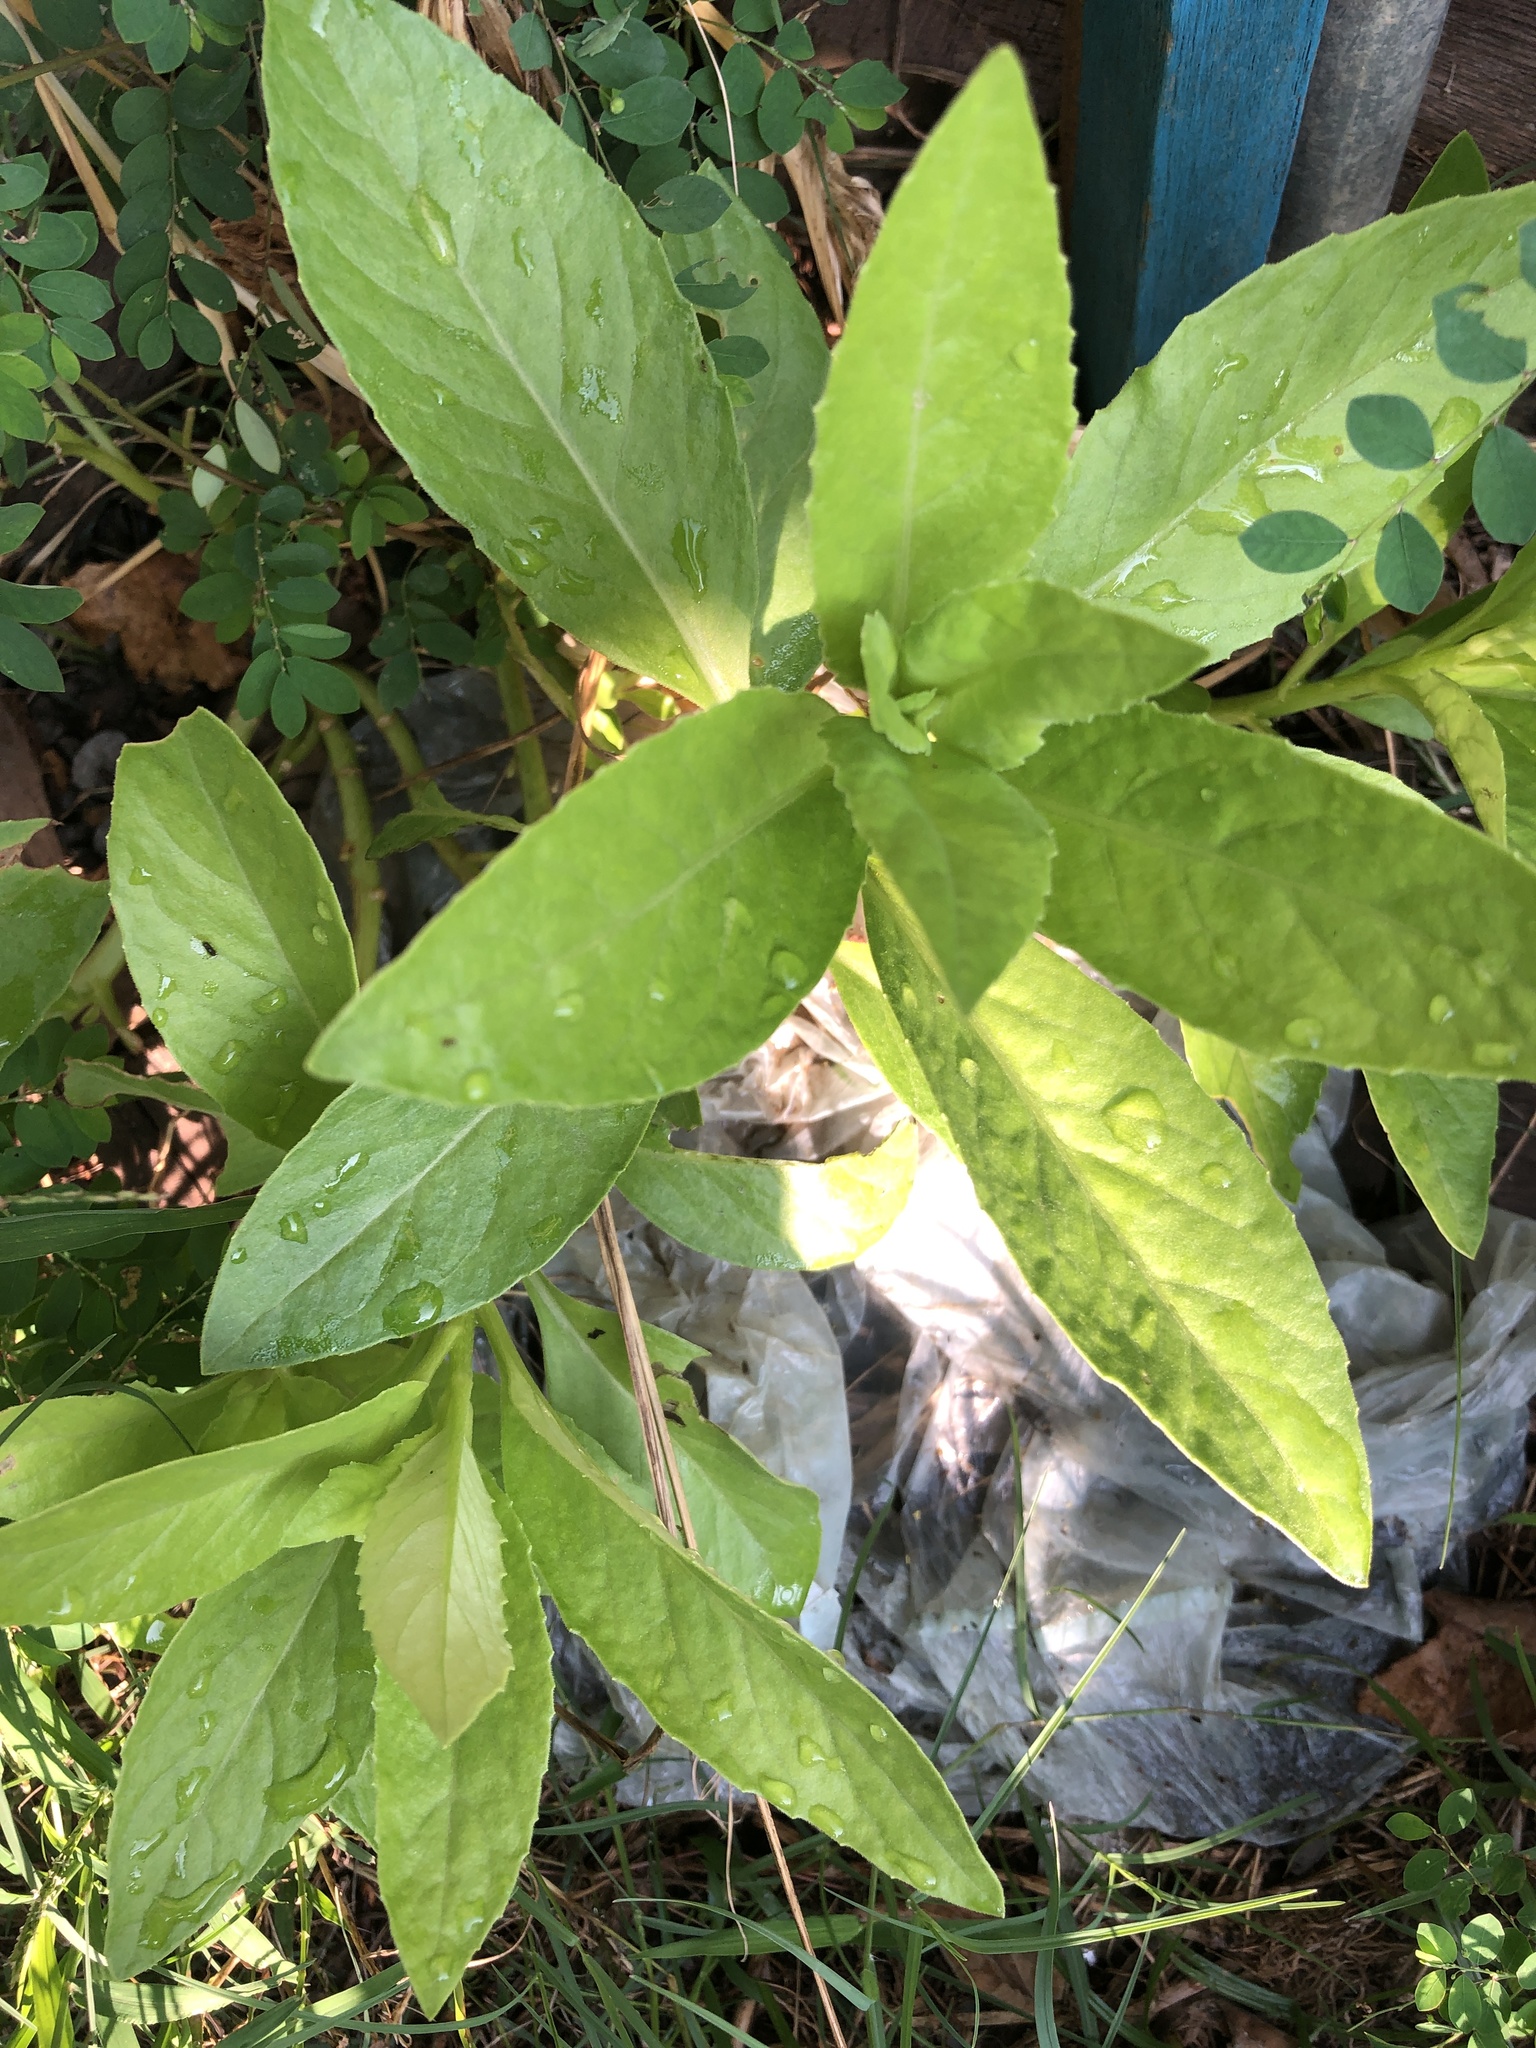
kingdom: Plantae
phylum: Tracheophyta
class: Magnoliopsida
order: Asterales
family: Asteraceae
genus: Gynura
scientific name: Gynura procumbens
